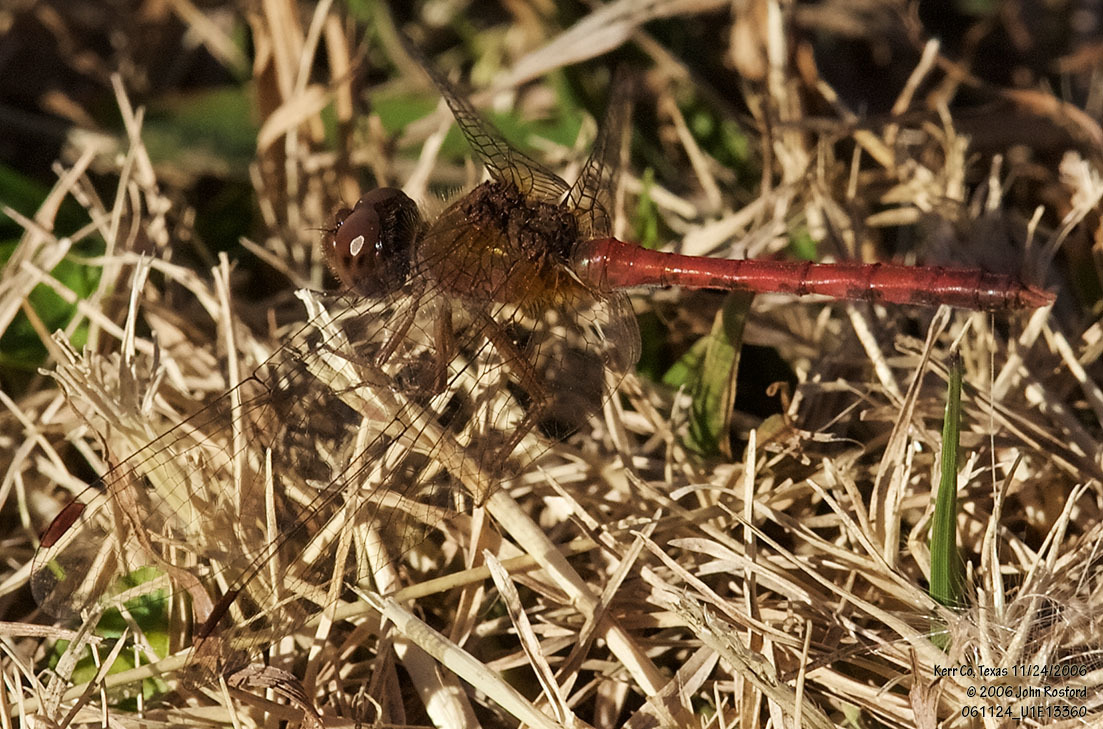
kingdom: Animalia
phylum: Arthropoda
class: Insecta
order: Odonata
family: Libellulidae
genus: Sympetrum
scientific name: Sympetrum vicinum
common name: Autumn meadowhawk
